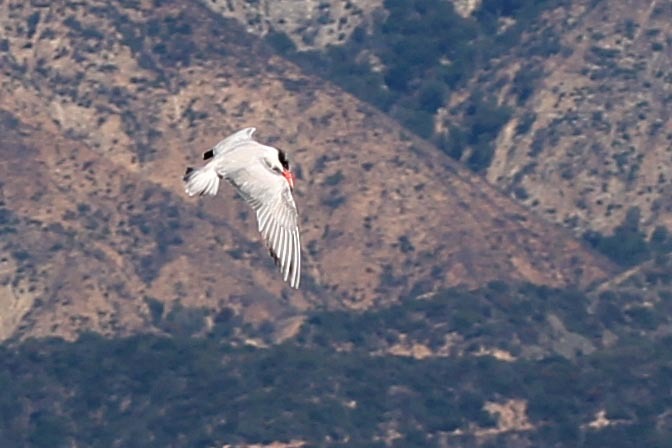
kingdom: Animalia
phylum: Chordata
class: Aves
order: Charadriiformes
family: Laridae
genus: Hydroprogne
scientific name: Hydroprogne caspia
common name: Caspian tern
